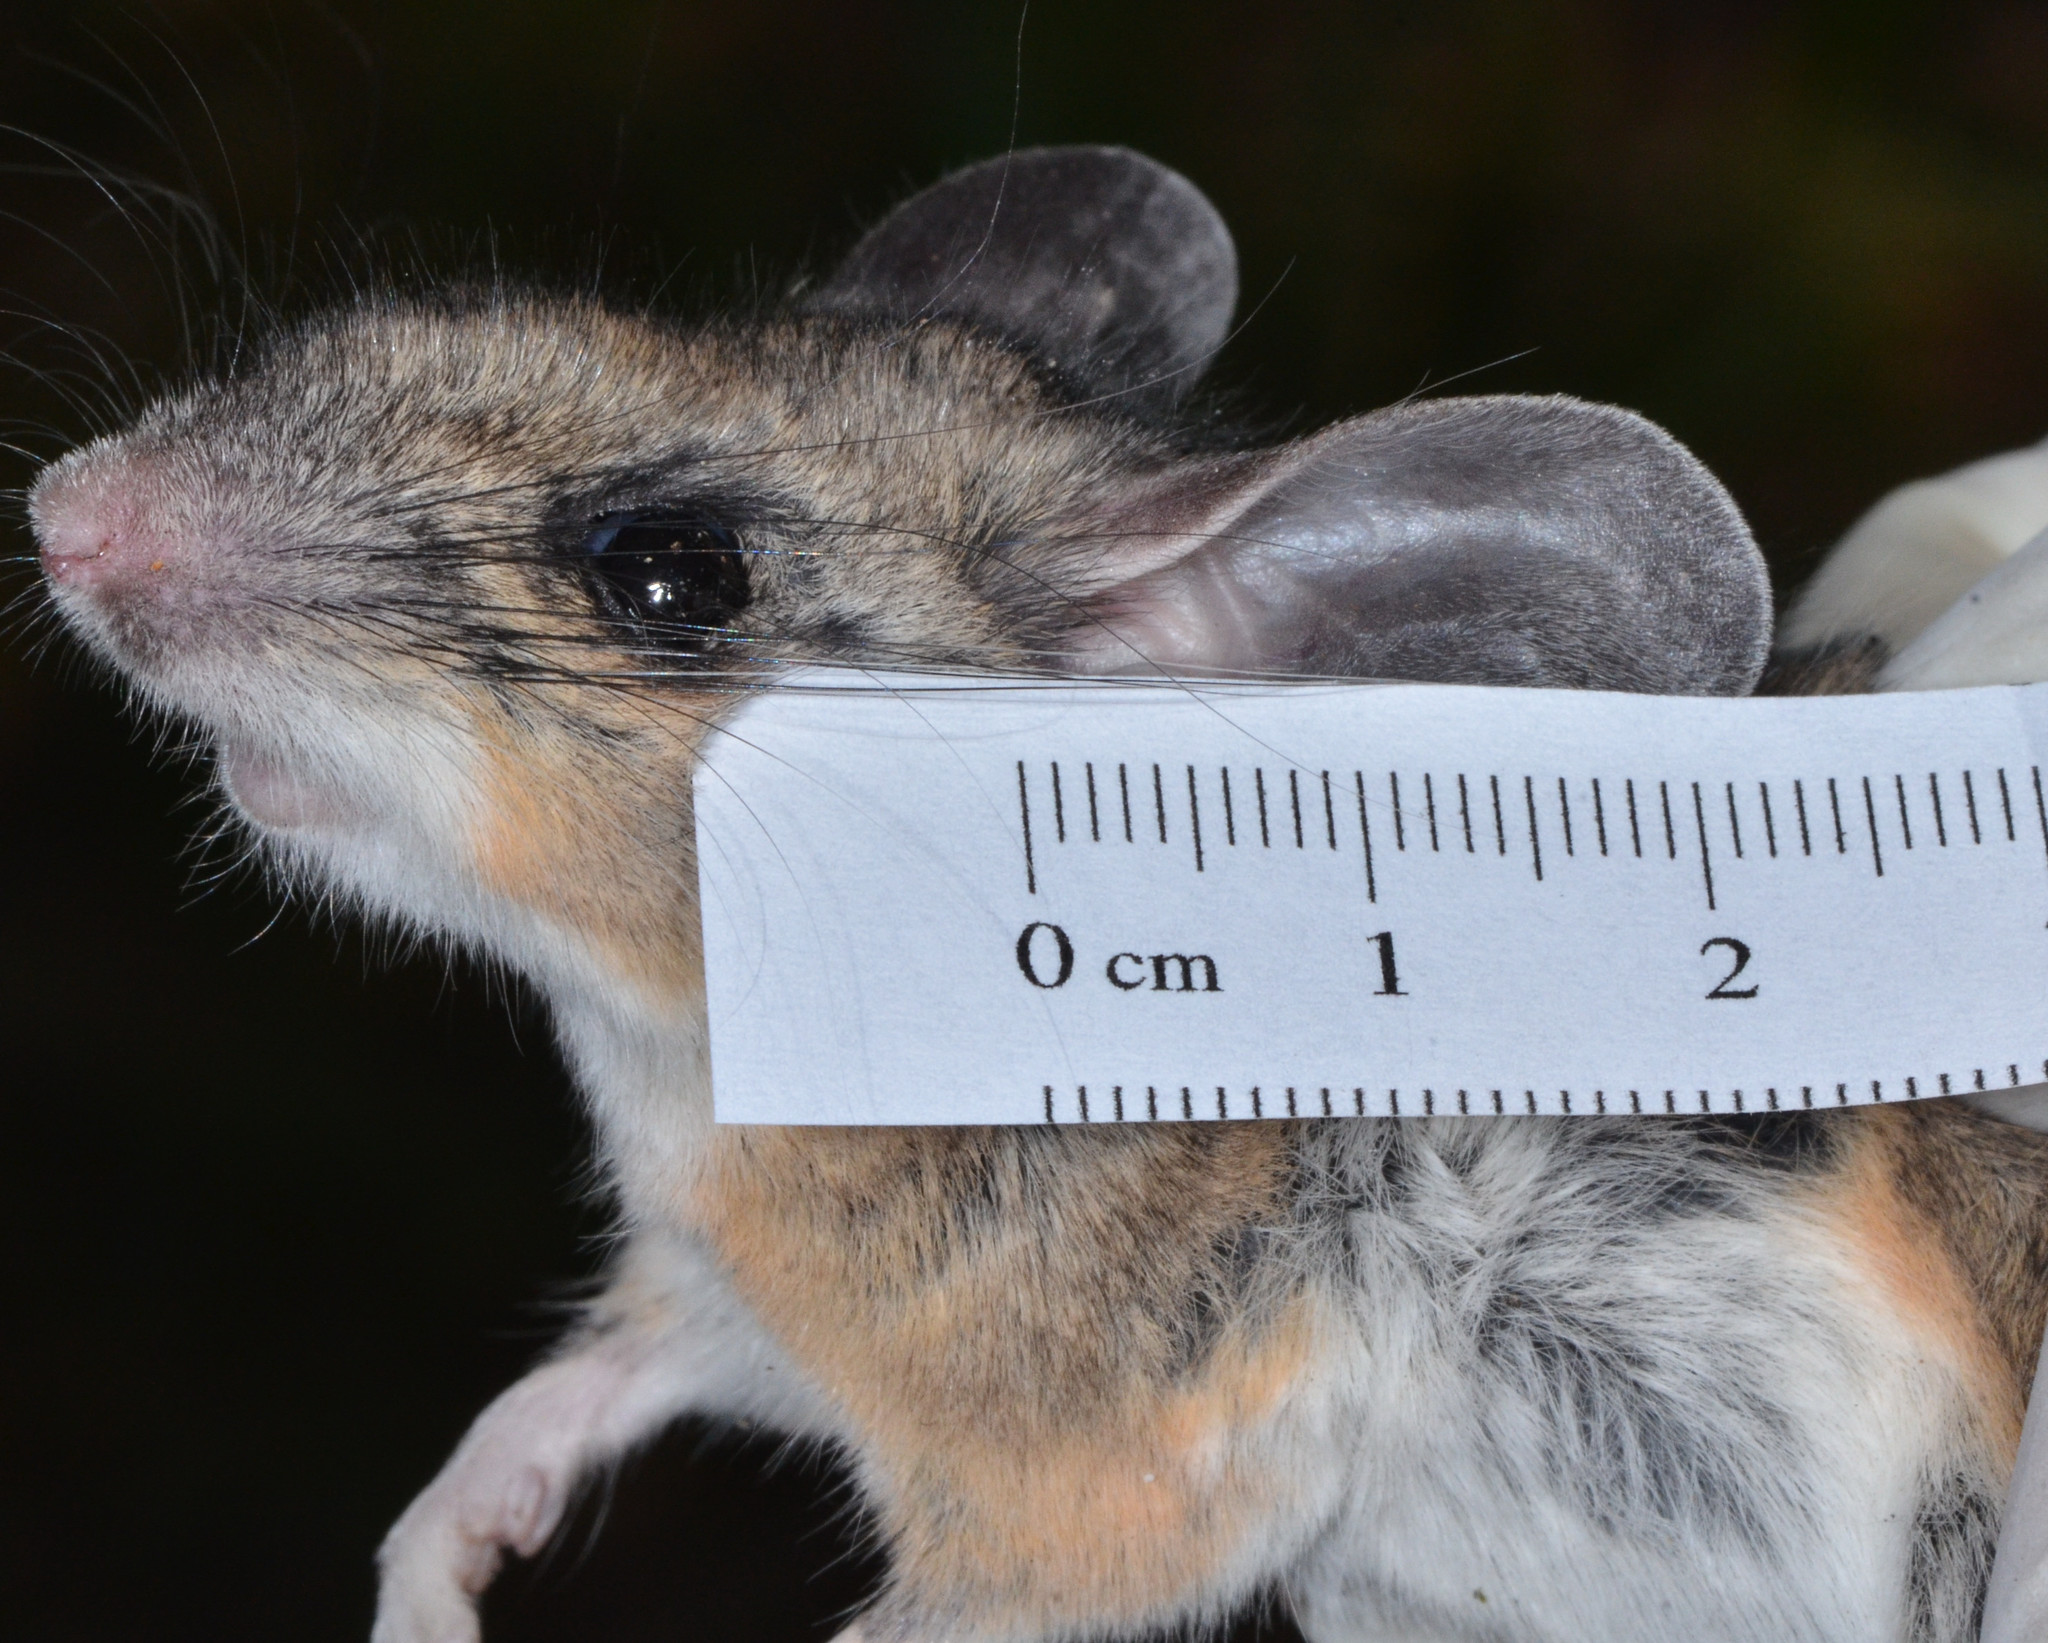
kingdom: Animalia
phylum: Chordata
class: Mammalia
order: Rodentia
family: Cricetidae
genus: Peromyscus
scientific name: Peromyscus truei
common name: Pinyon mouse
